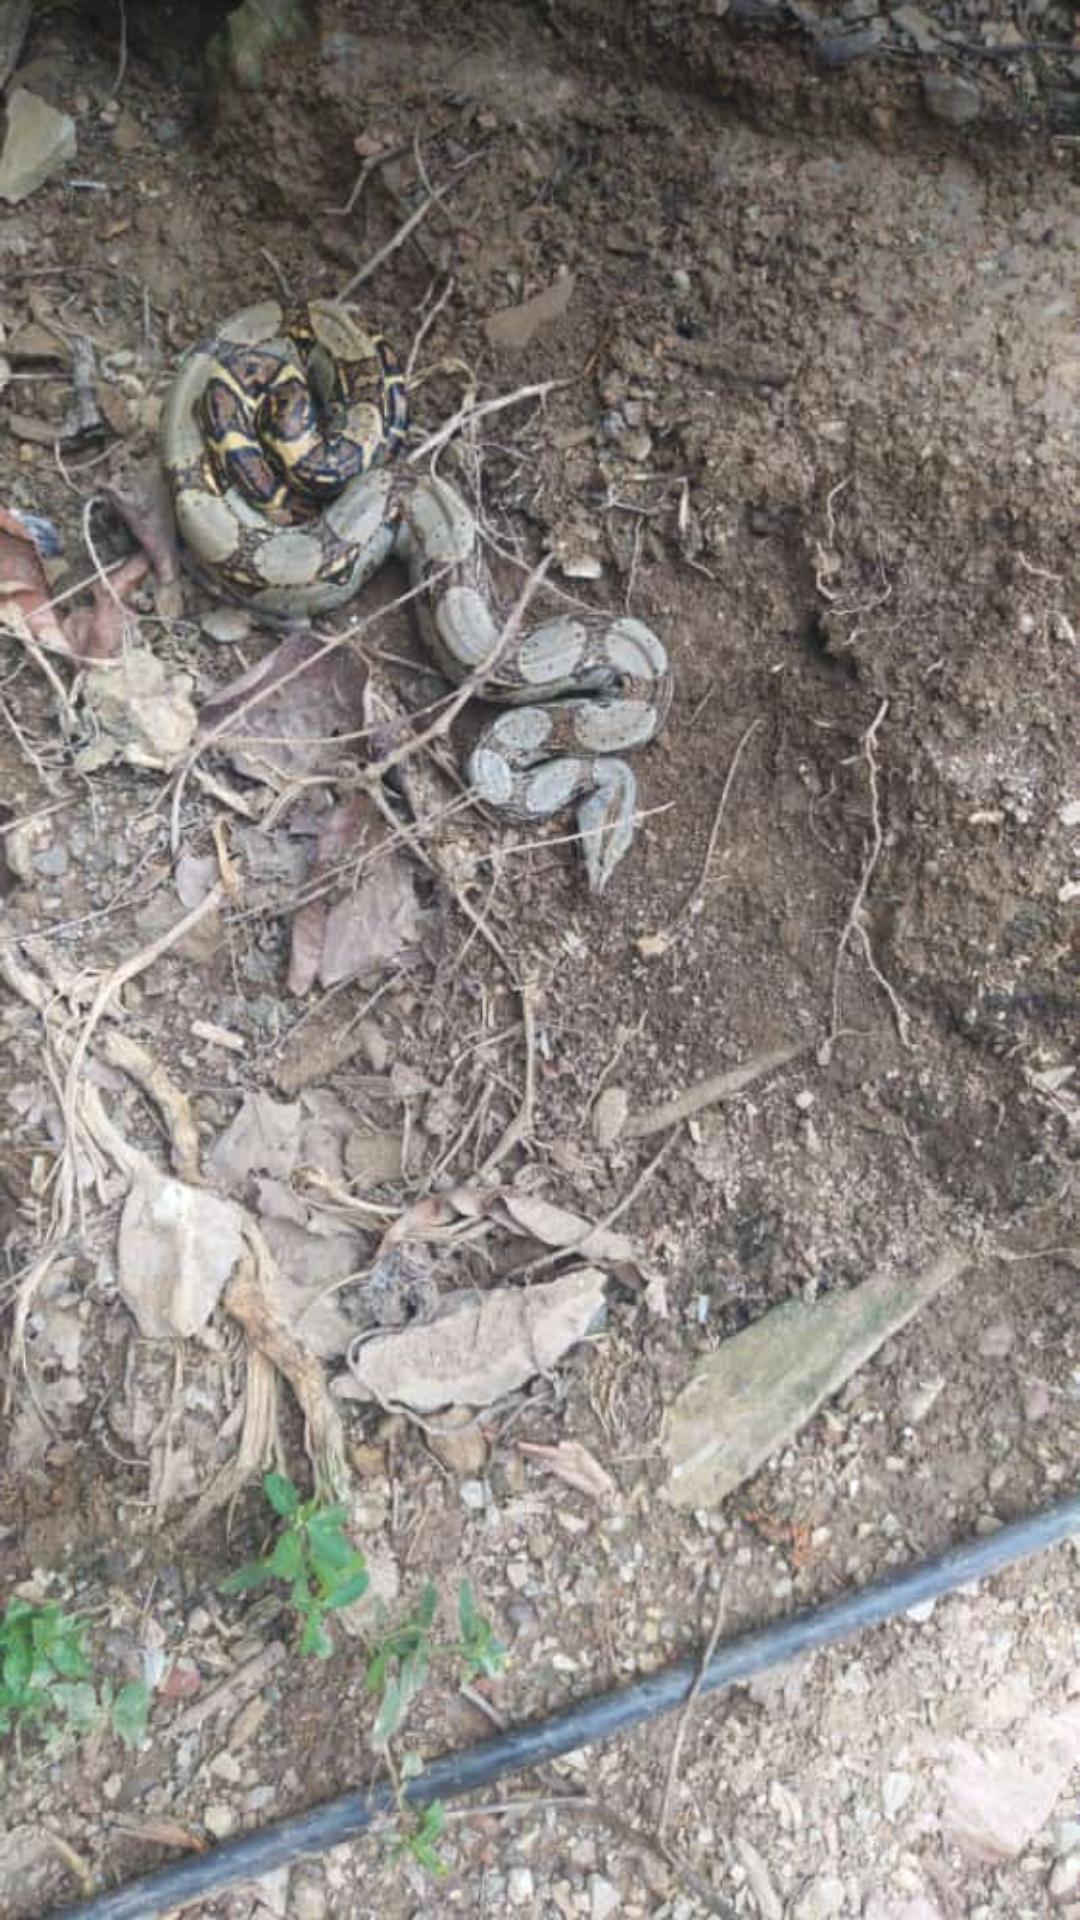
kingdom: Animalia
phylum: Chordata
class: Squamata
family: Boidae
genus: Boa
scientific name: Boa constrictor
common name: Boa constrictor
